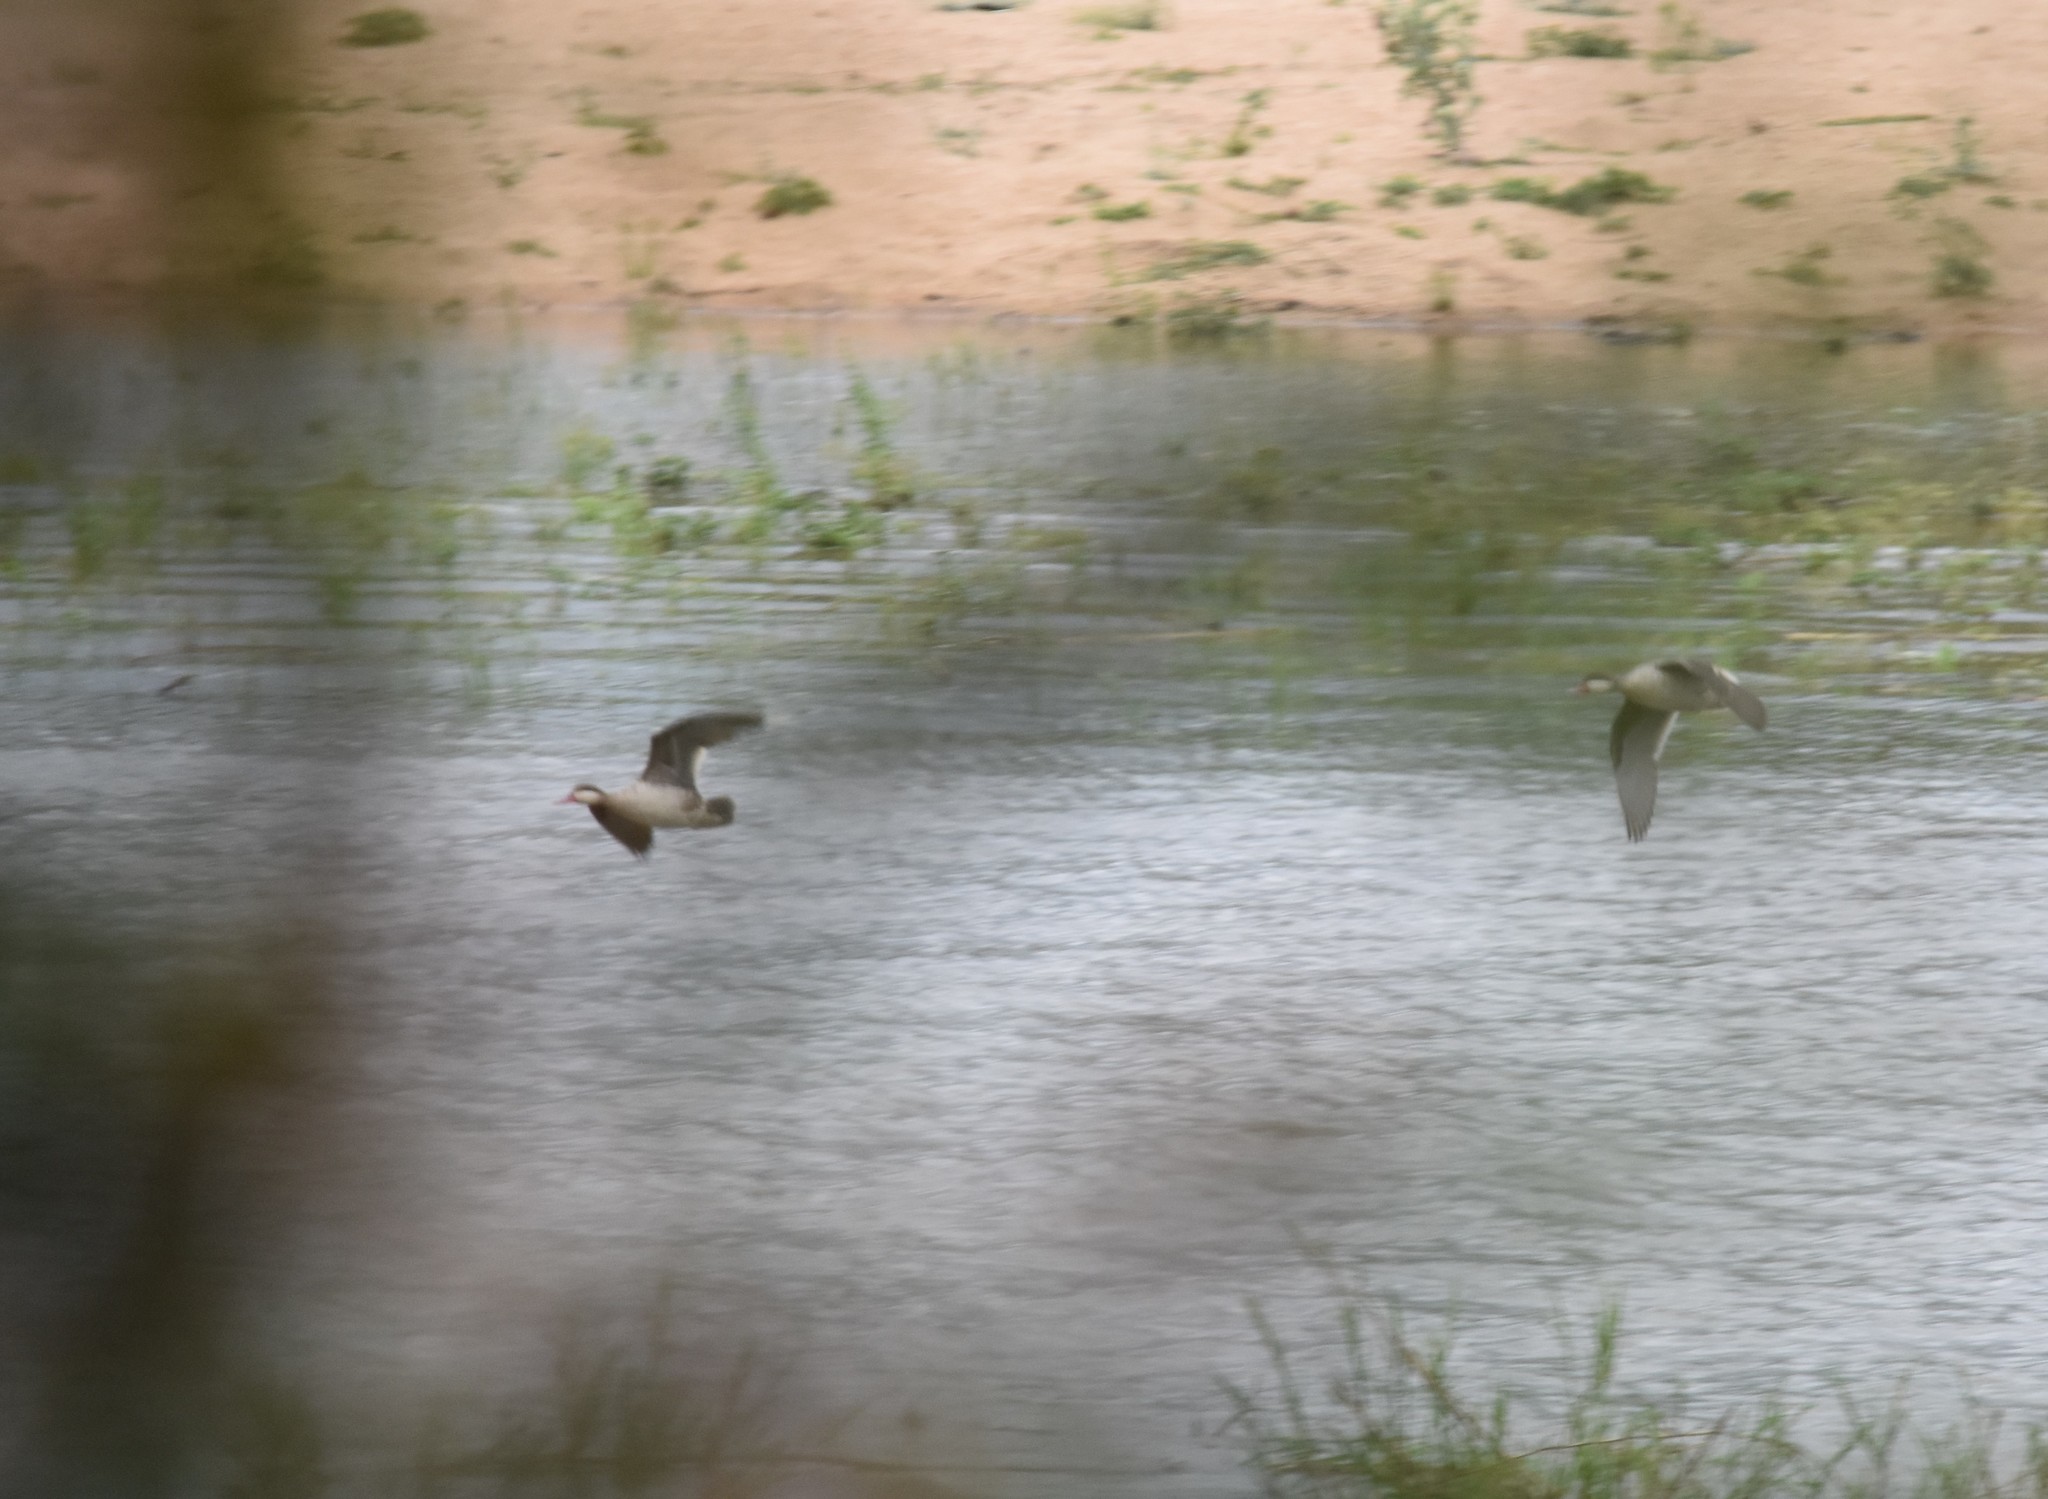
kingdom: Animalia
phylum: Chordata
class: Aves
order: Anseriformes
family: Anatidae
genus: Anas
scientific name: Anas erythrorhyncha
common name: Red-billed teal
